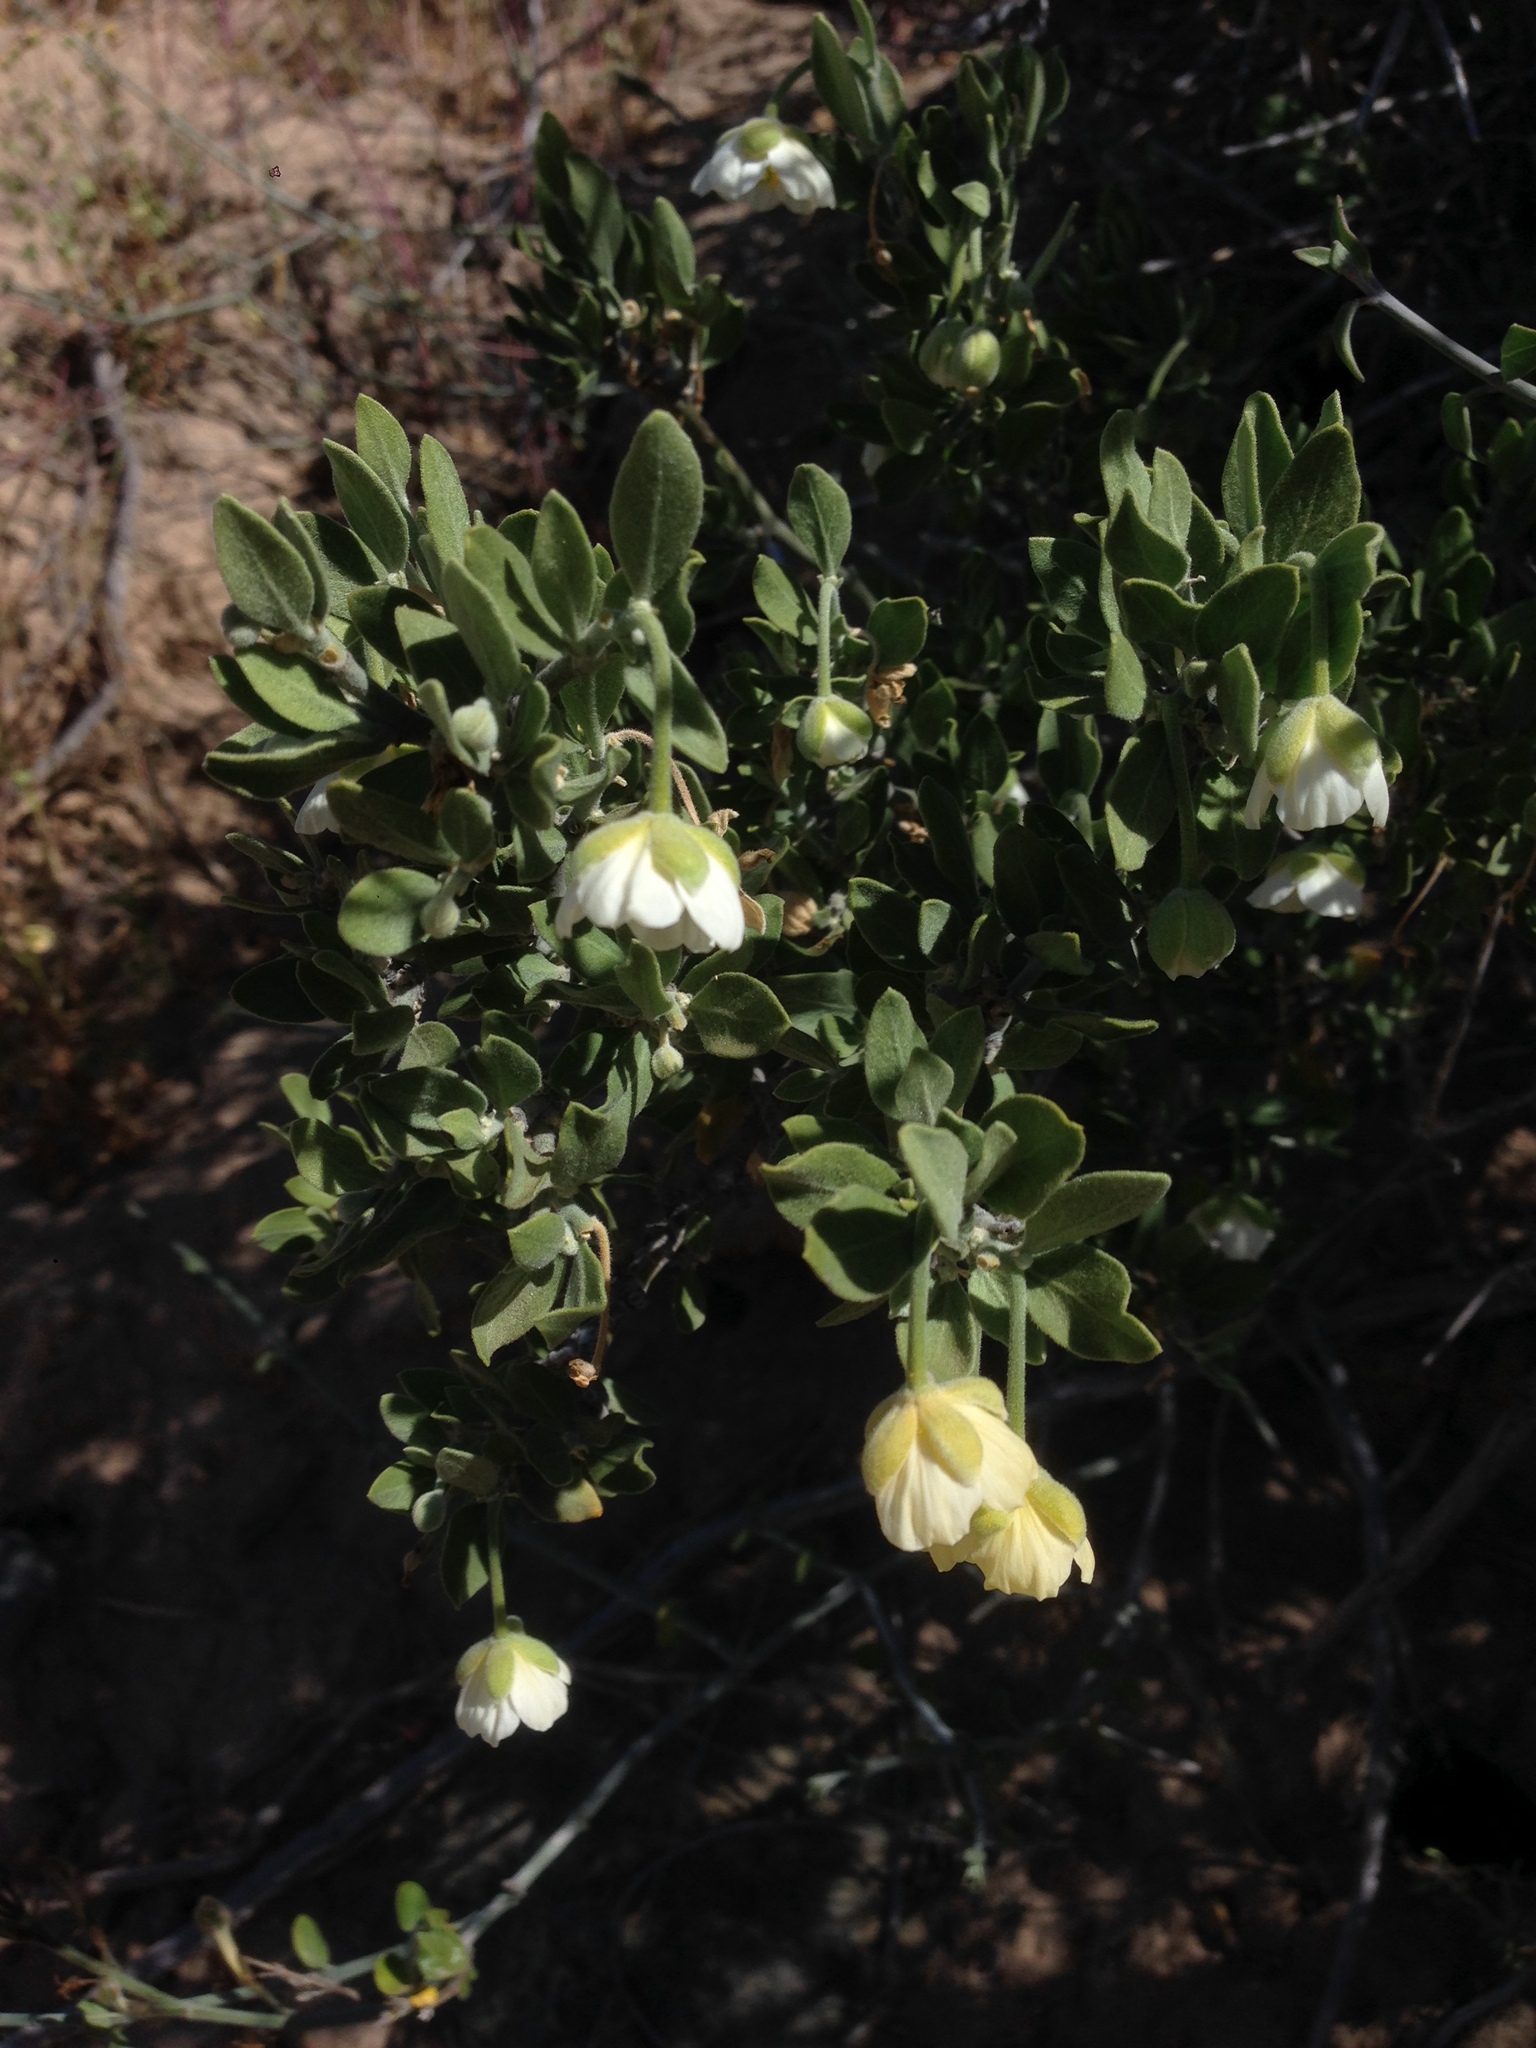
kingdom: Plantae
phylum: Tracheophyta
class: Magnoliopsida
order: Zygophyllales
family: Zygophyllaceae
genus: Viscainoa
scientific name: Viscainoa geniculata
